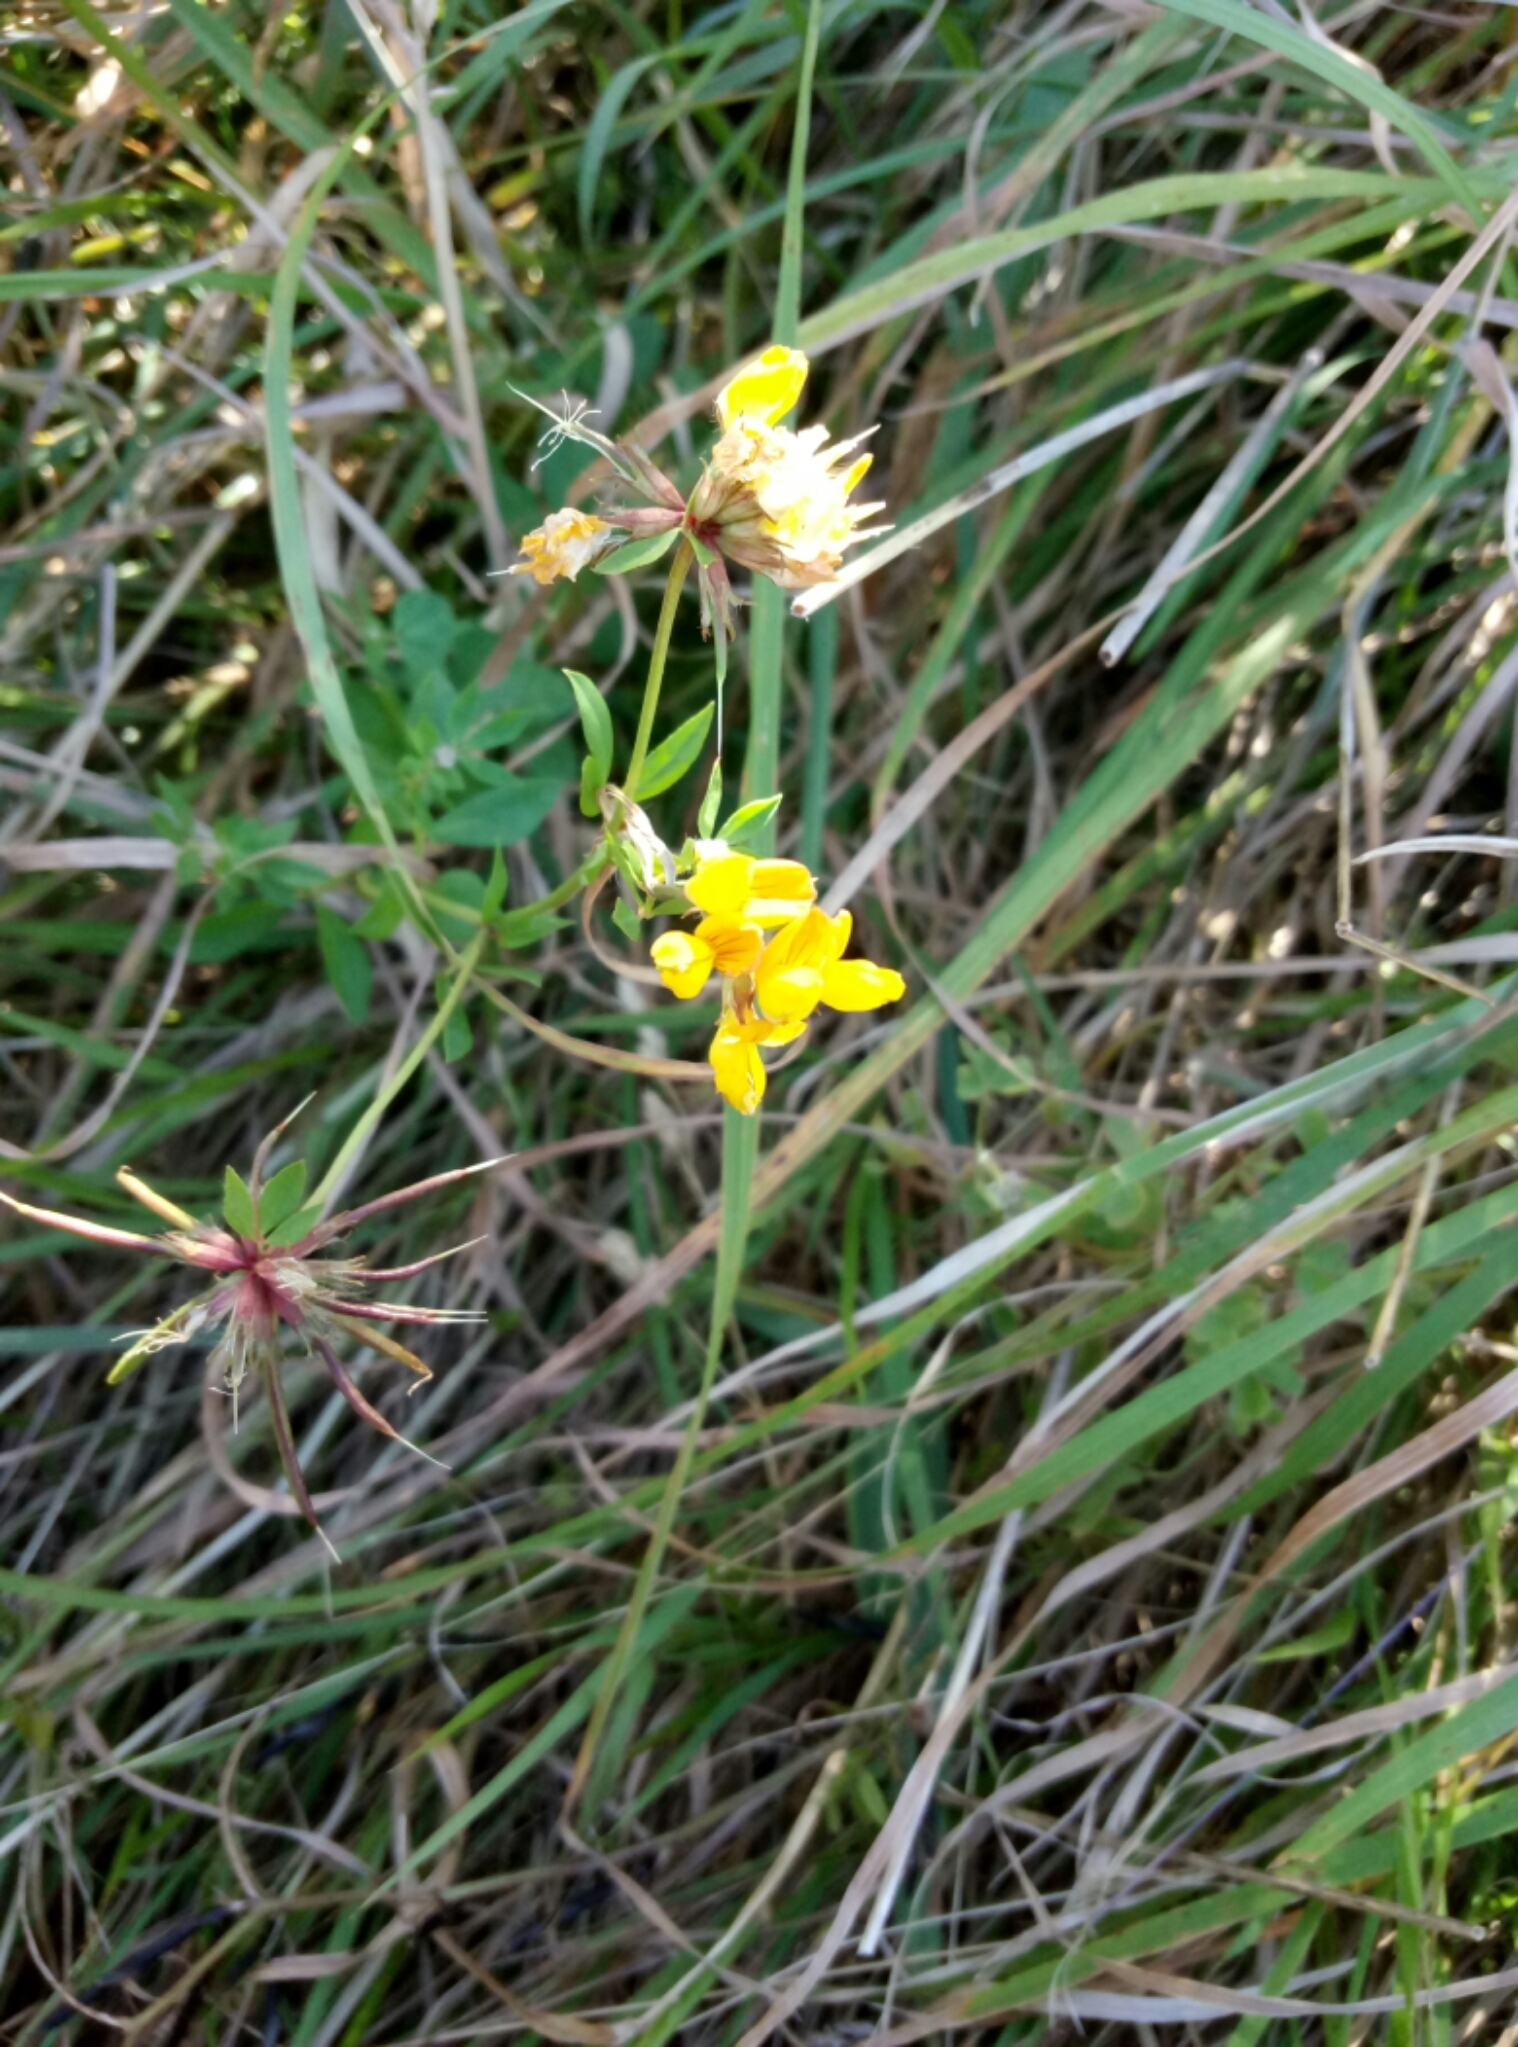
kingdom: Plantae
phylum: Tracheophyta
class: Magnoliopsida
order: Fabales
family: Fabaceae
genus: Lotus
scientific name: Lotus pedunculatus
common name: Greater birdsfoot-trefoil
